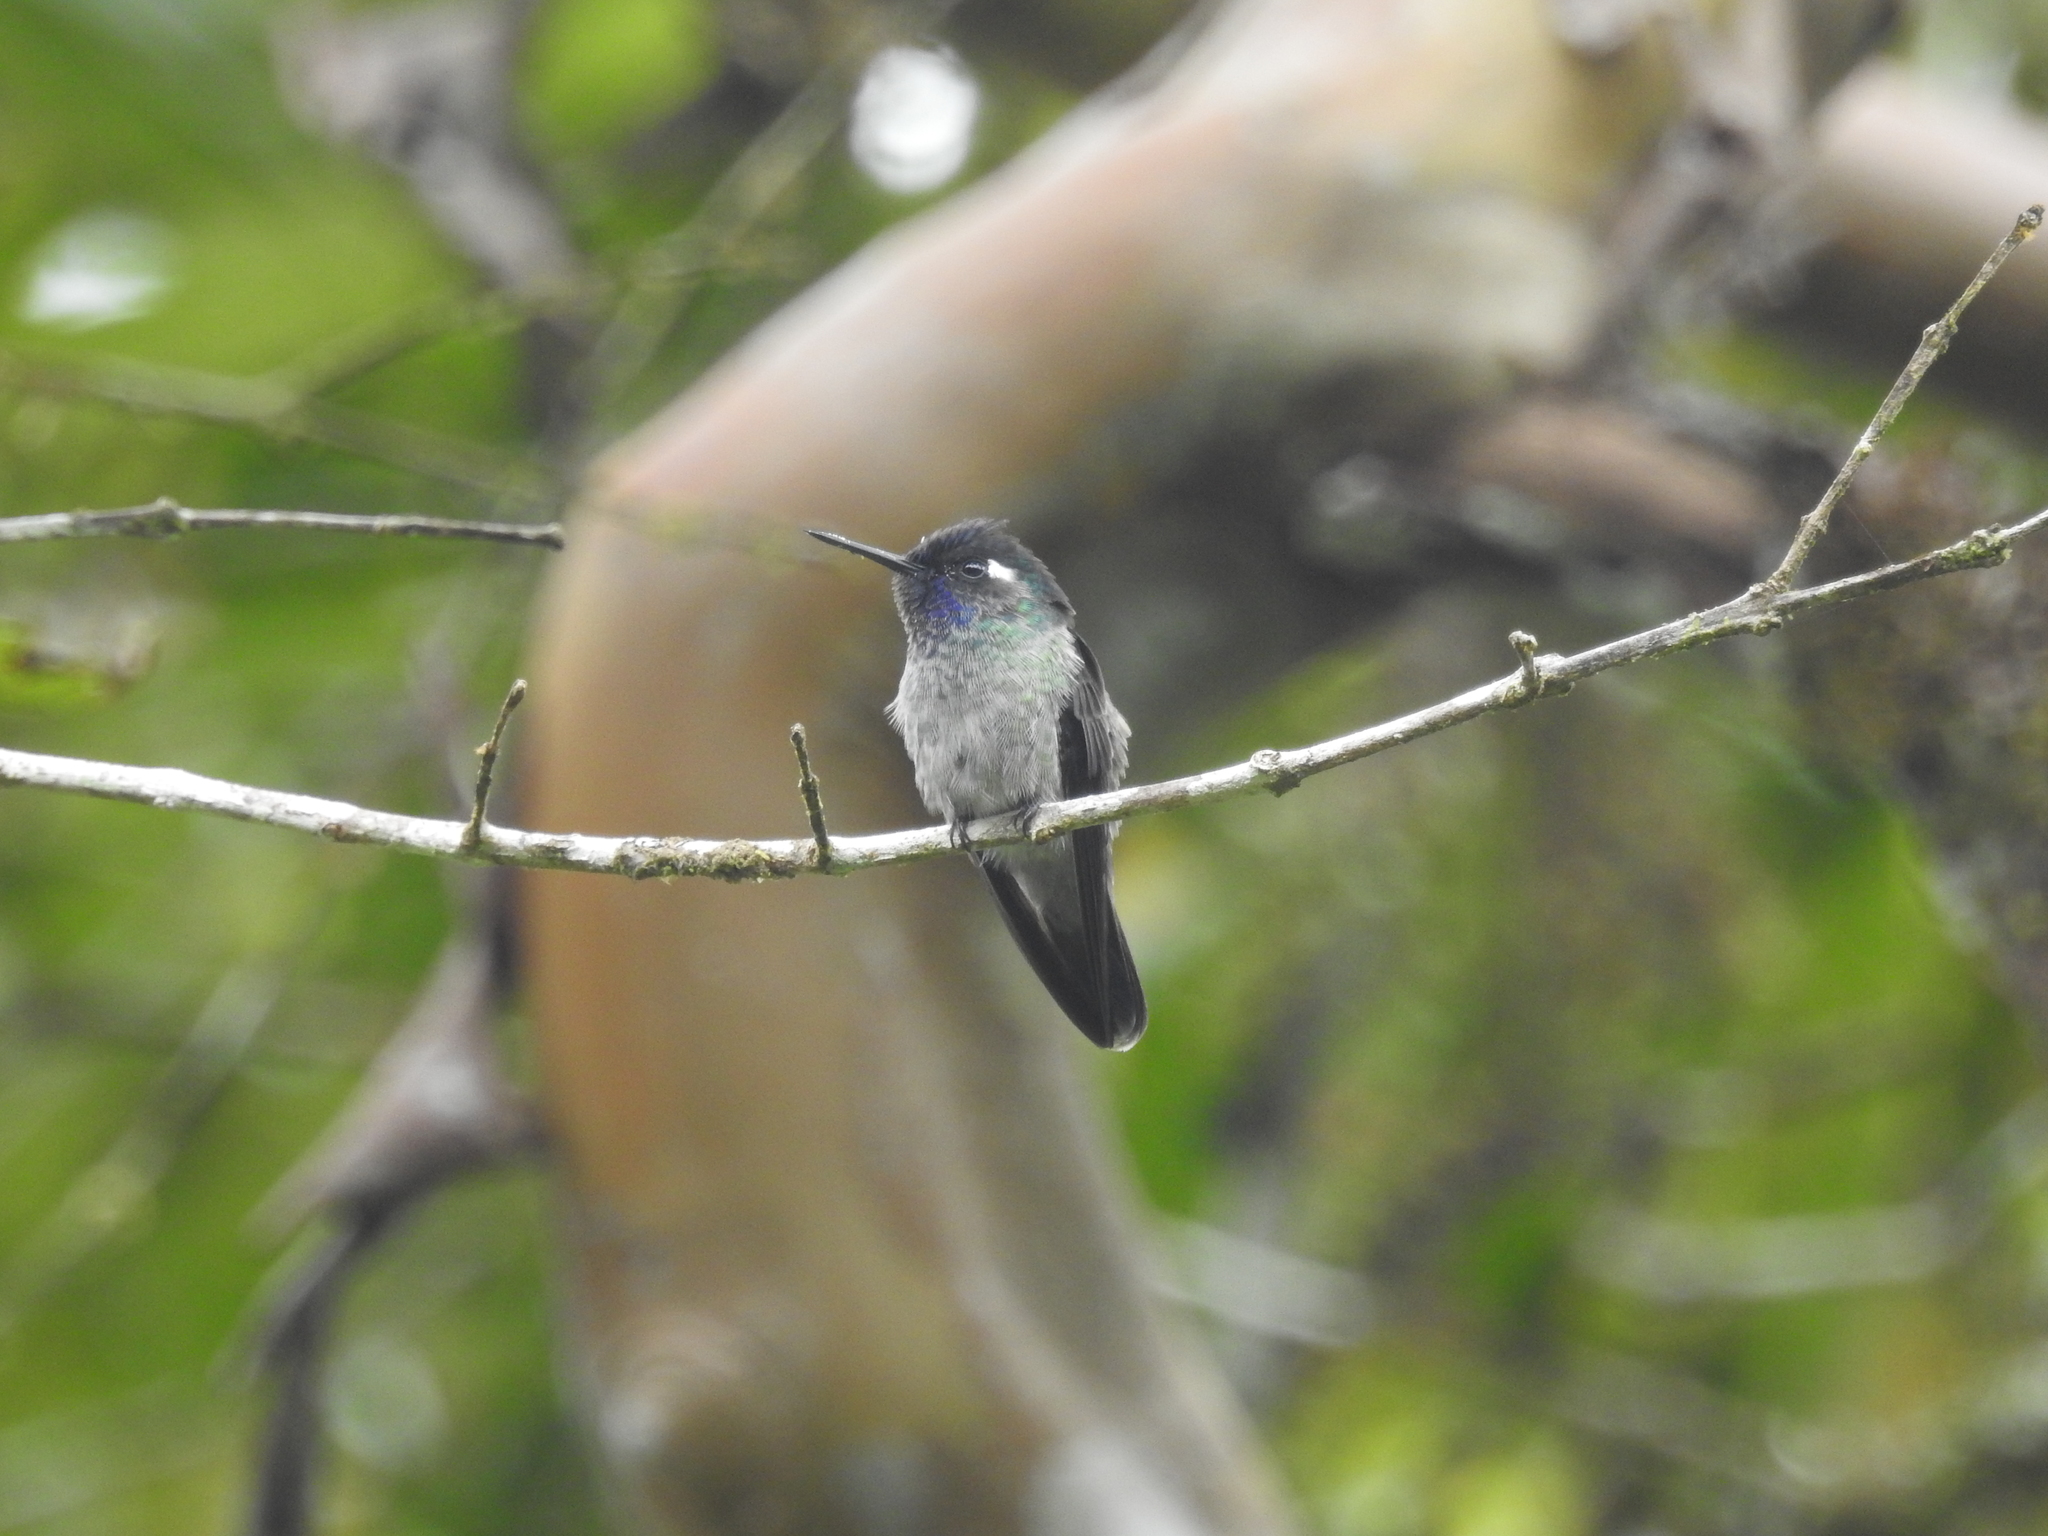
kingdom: Animalia
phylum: Chordata
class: Aves
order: Apodiformes
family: Trochilidae
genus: Klais
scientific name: Klais guimeti
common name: Violet-headed hummingbird
